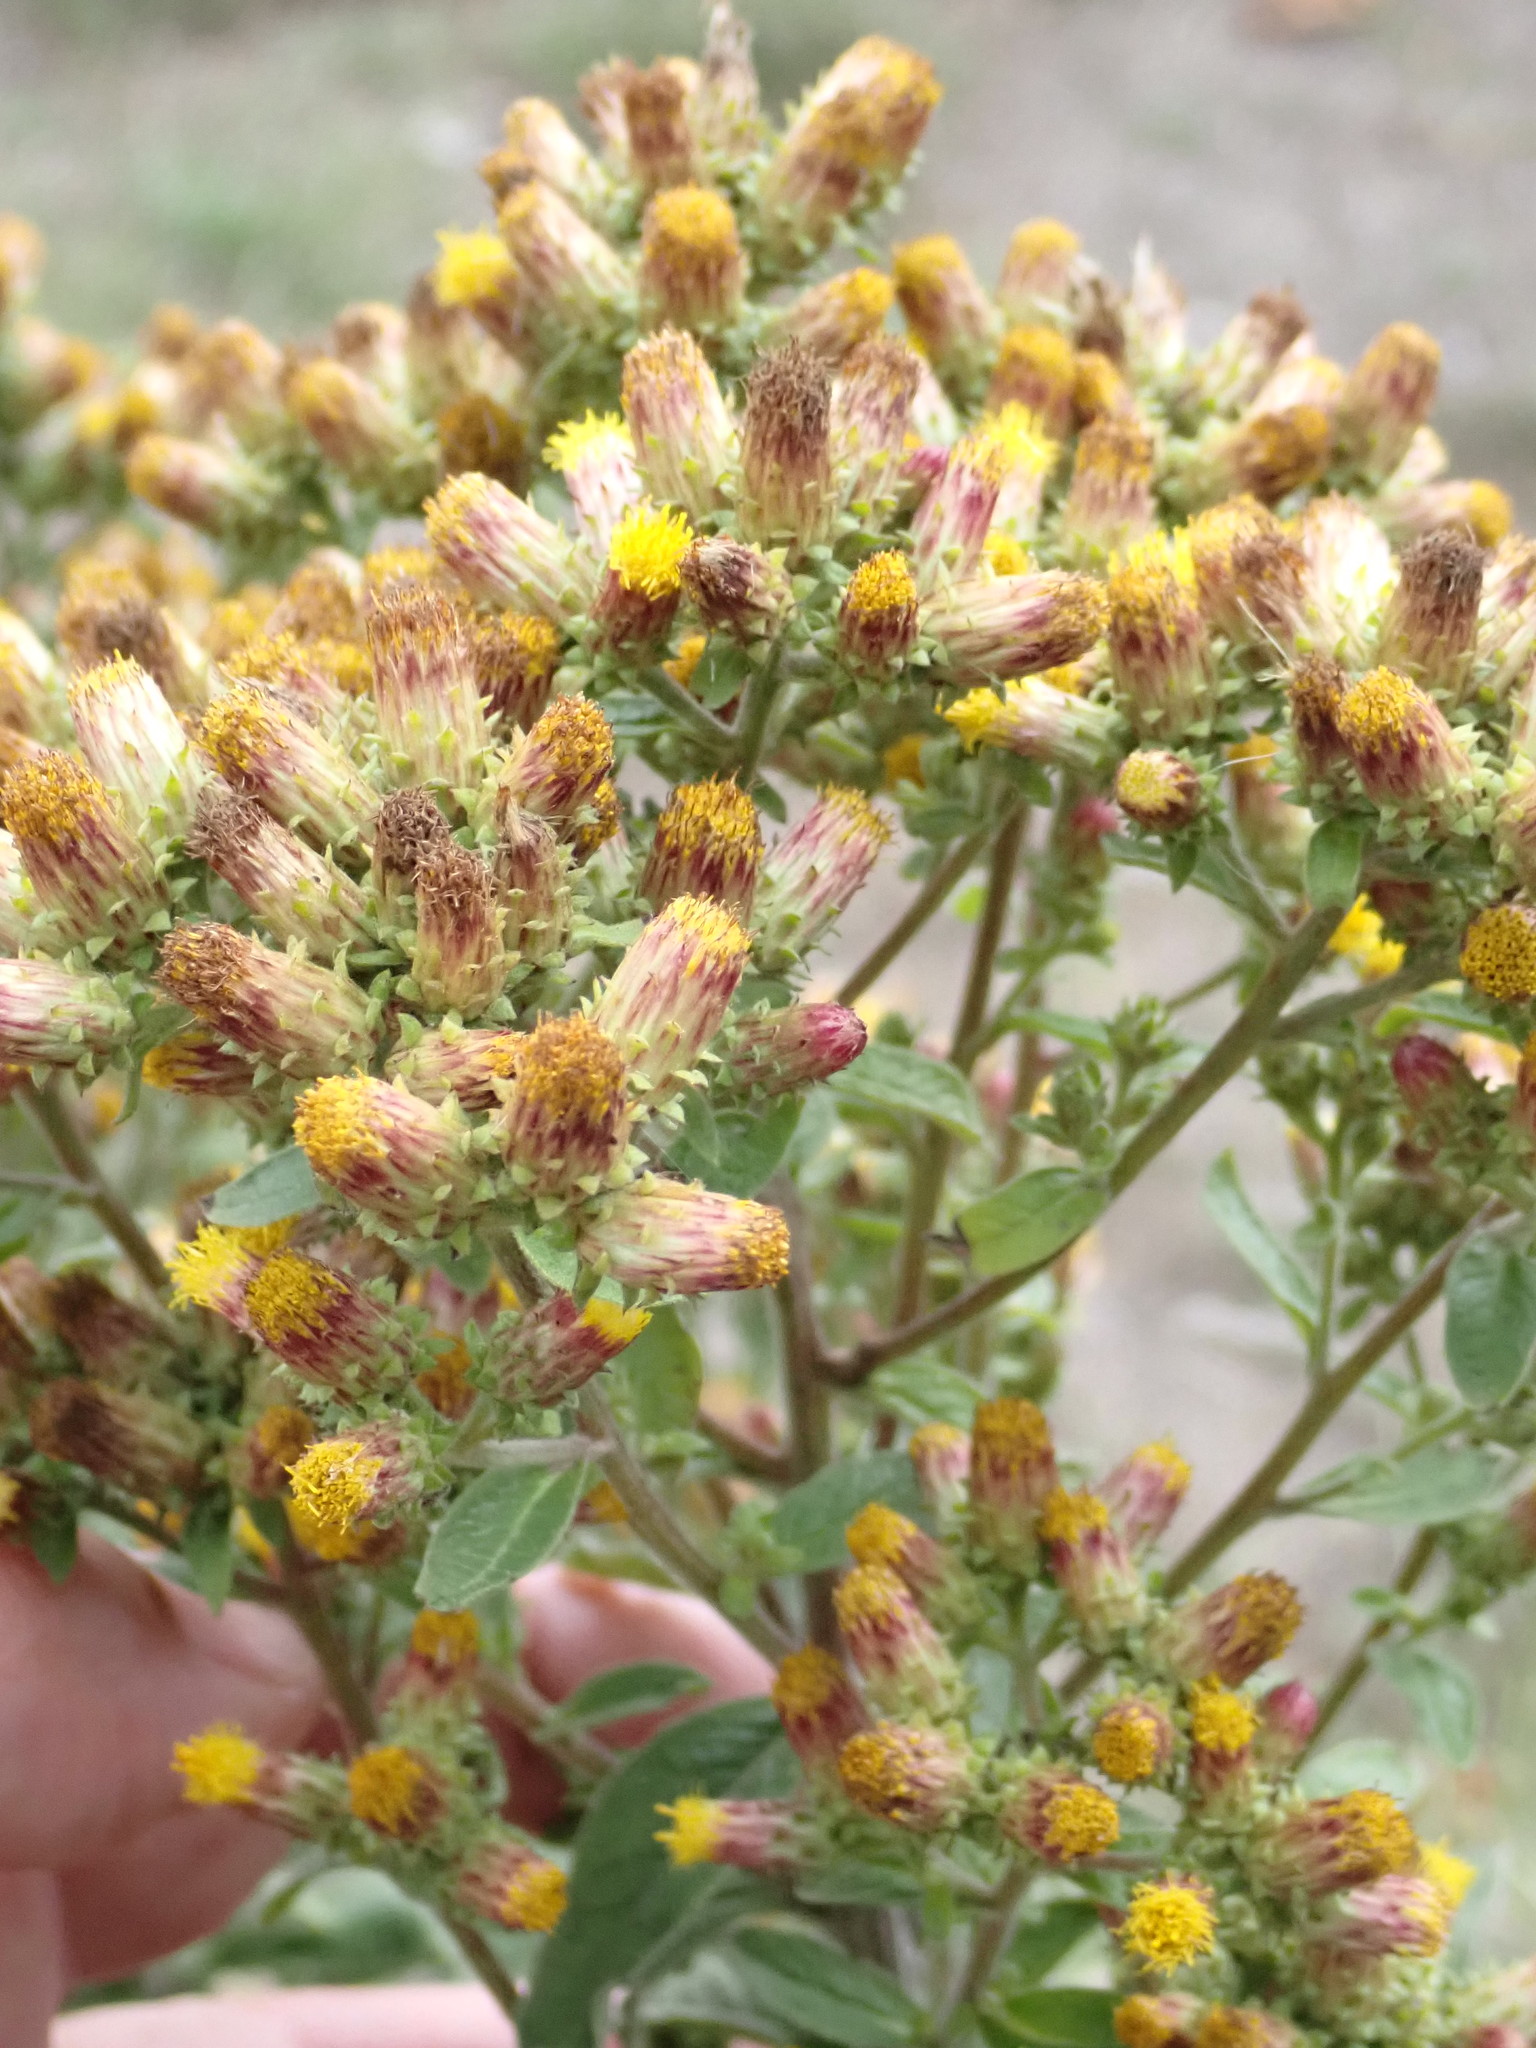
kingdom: Plantae
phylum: Tracheophyta
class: Magnoliopsida
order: Asterales
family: Asteraceae
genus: Pentanema
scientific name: Pentanema squarrosum
